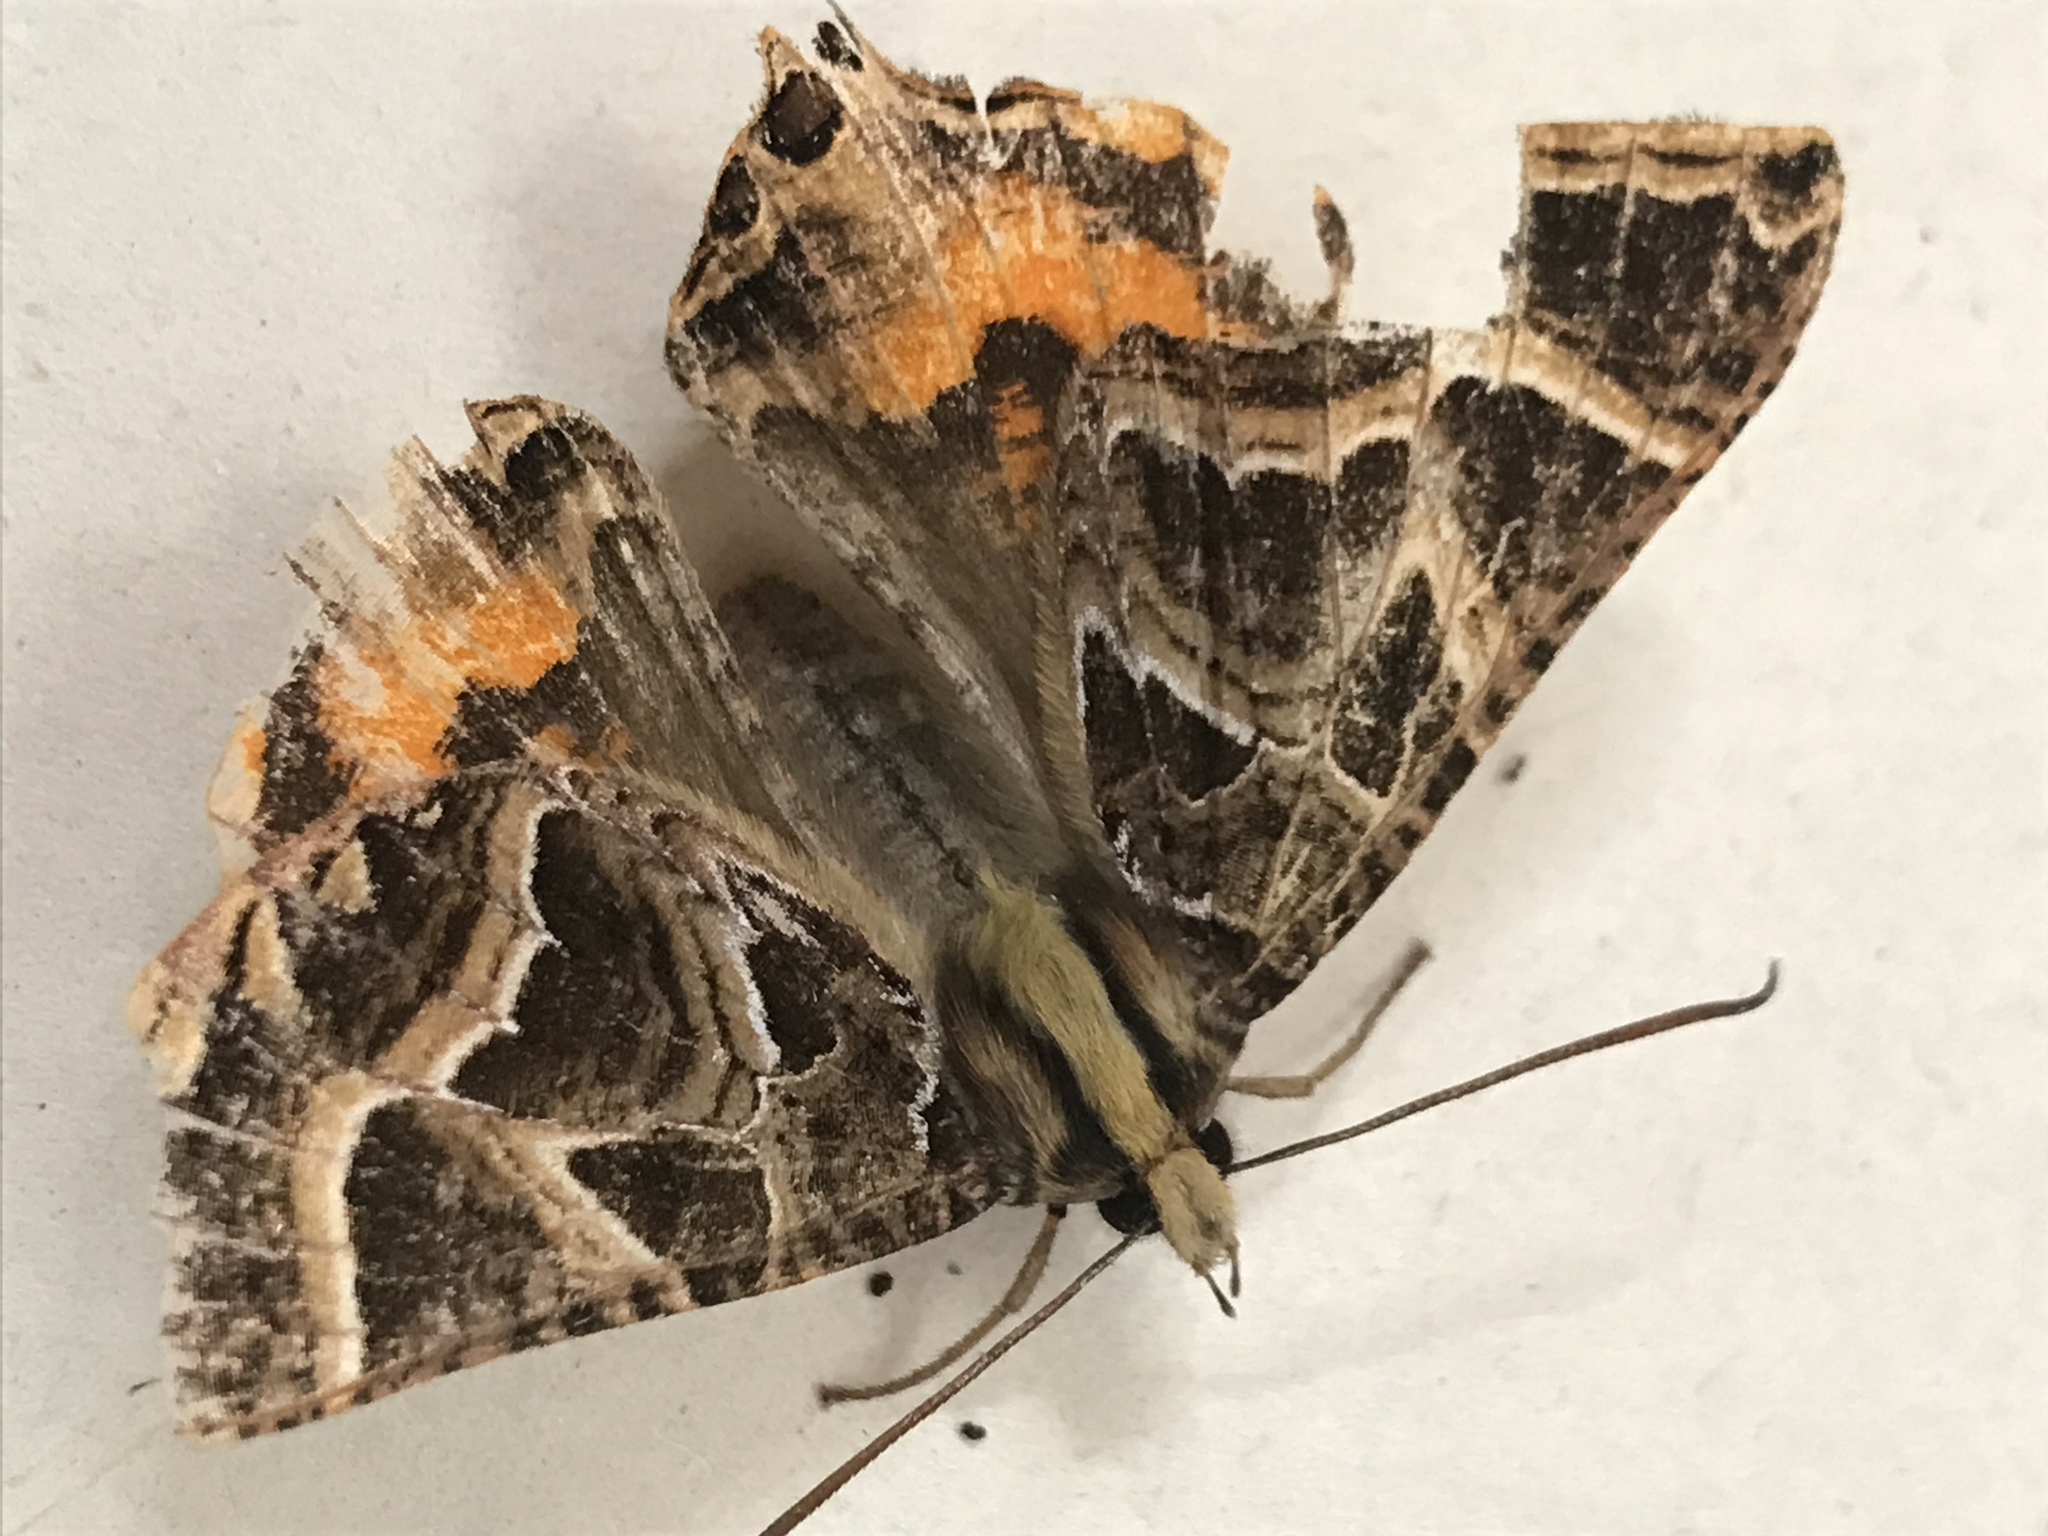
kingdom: Animalia
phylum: Arthropoda
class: Insecta
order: Lepidoptera
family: Sematuridae
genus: Coronidia
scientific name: Coronidia
